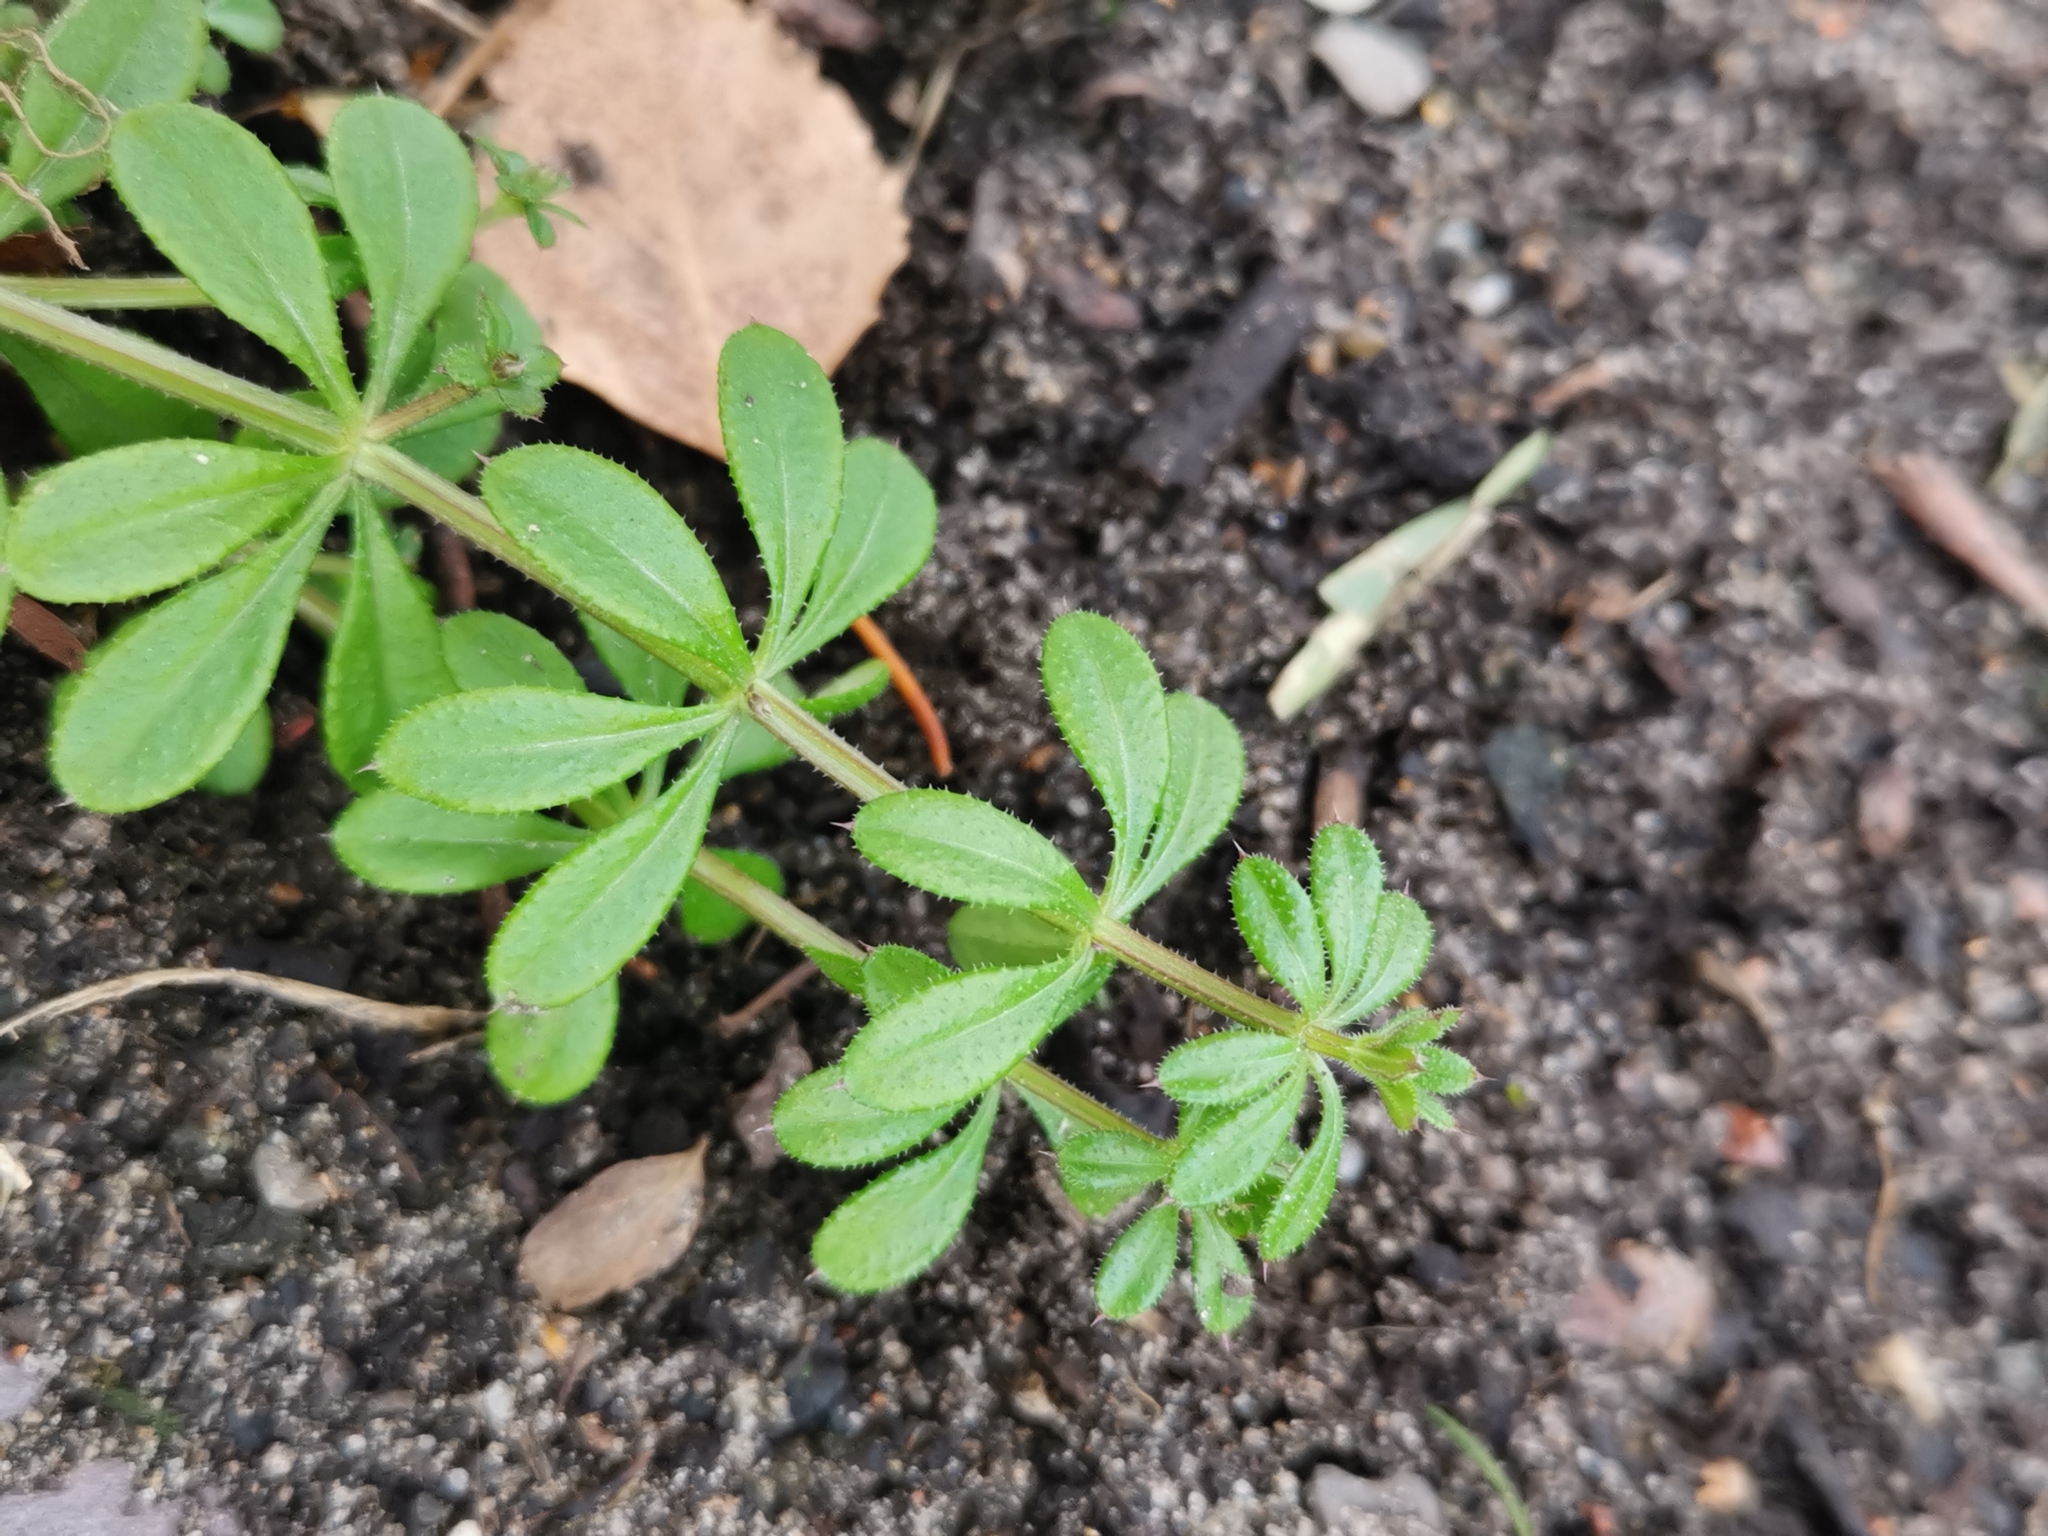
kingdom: Plantae
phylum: Tracheophyta
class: Magnoliopsida
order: Gentianales
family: Rubiaceae
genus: Galium
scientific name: Galium aparine
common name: Cleavers
